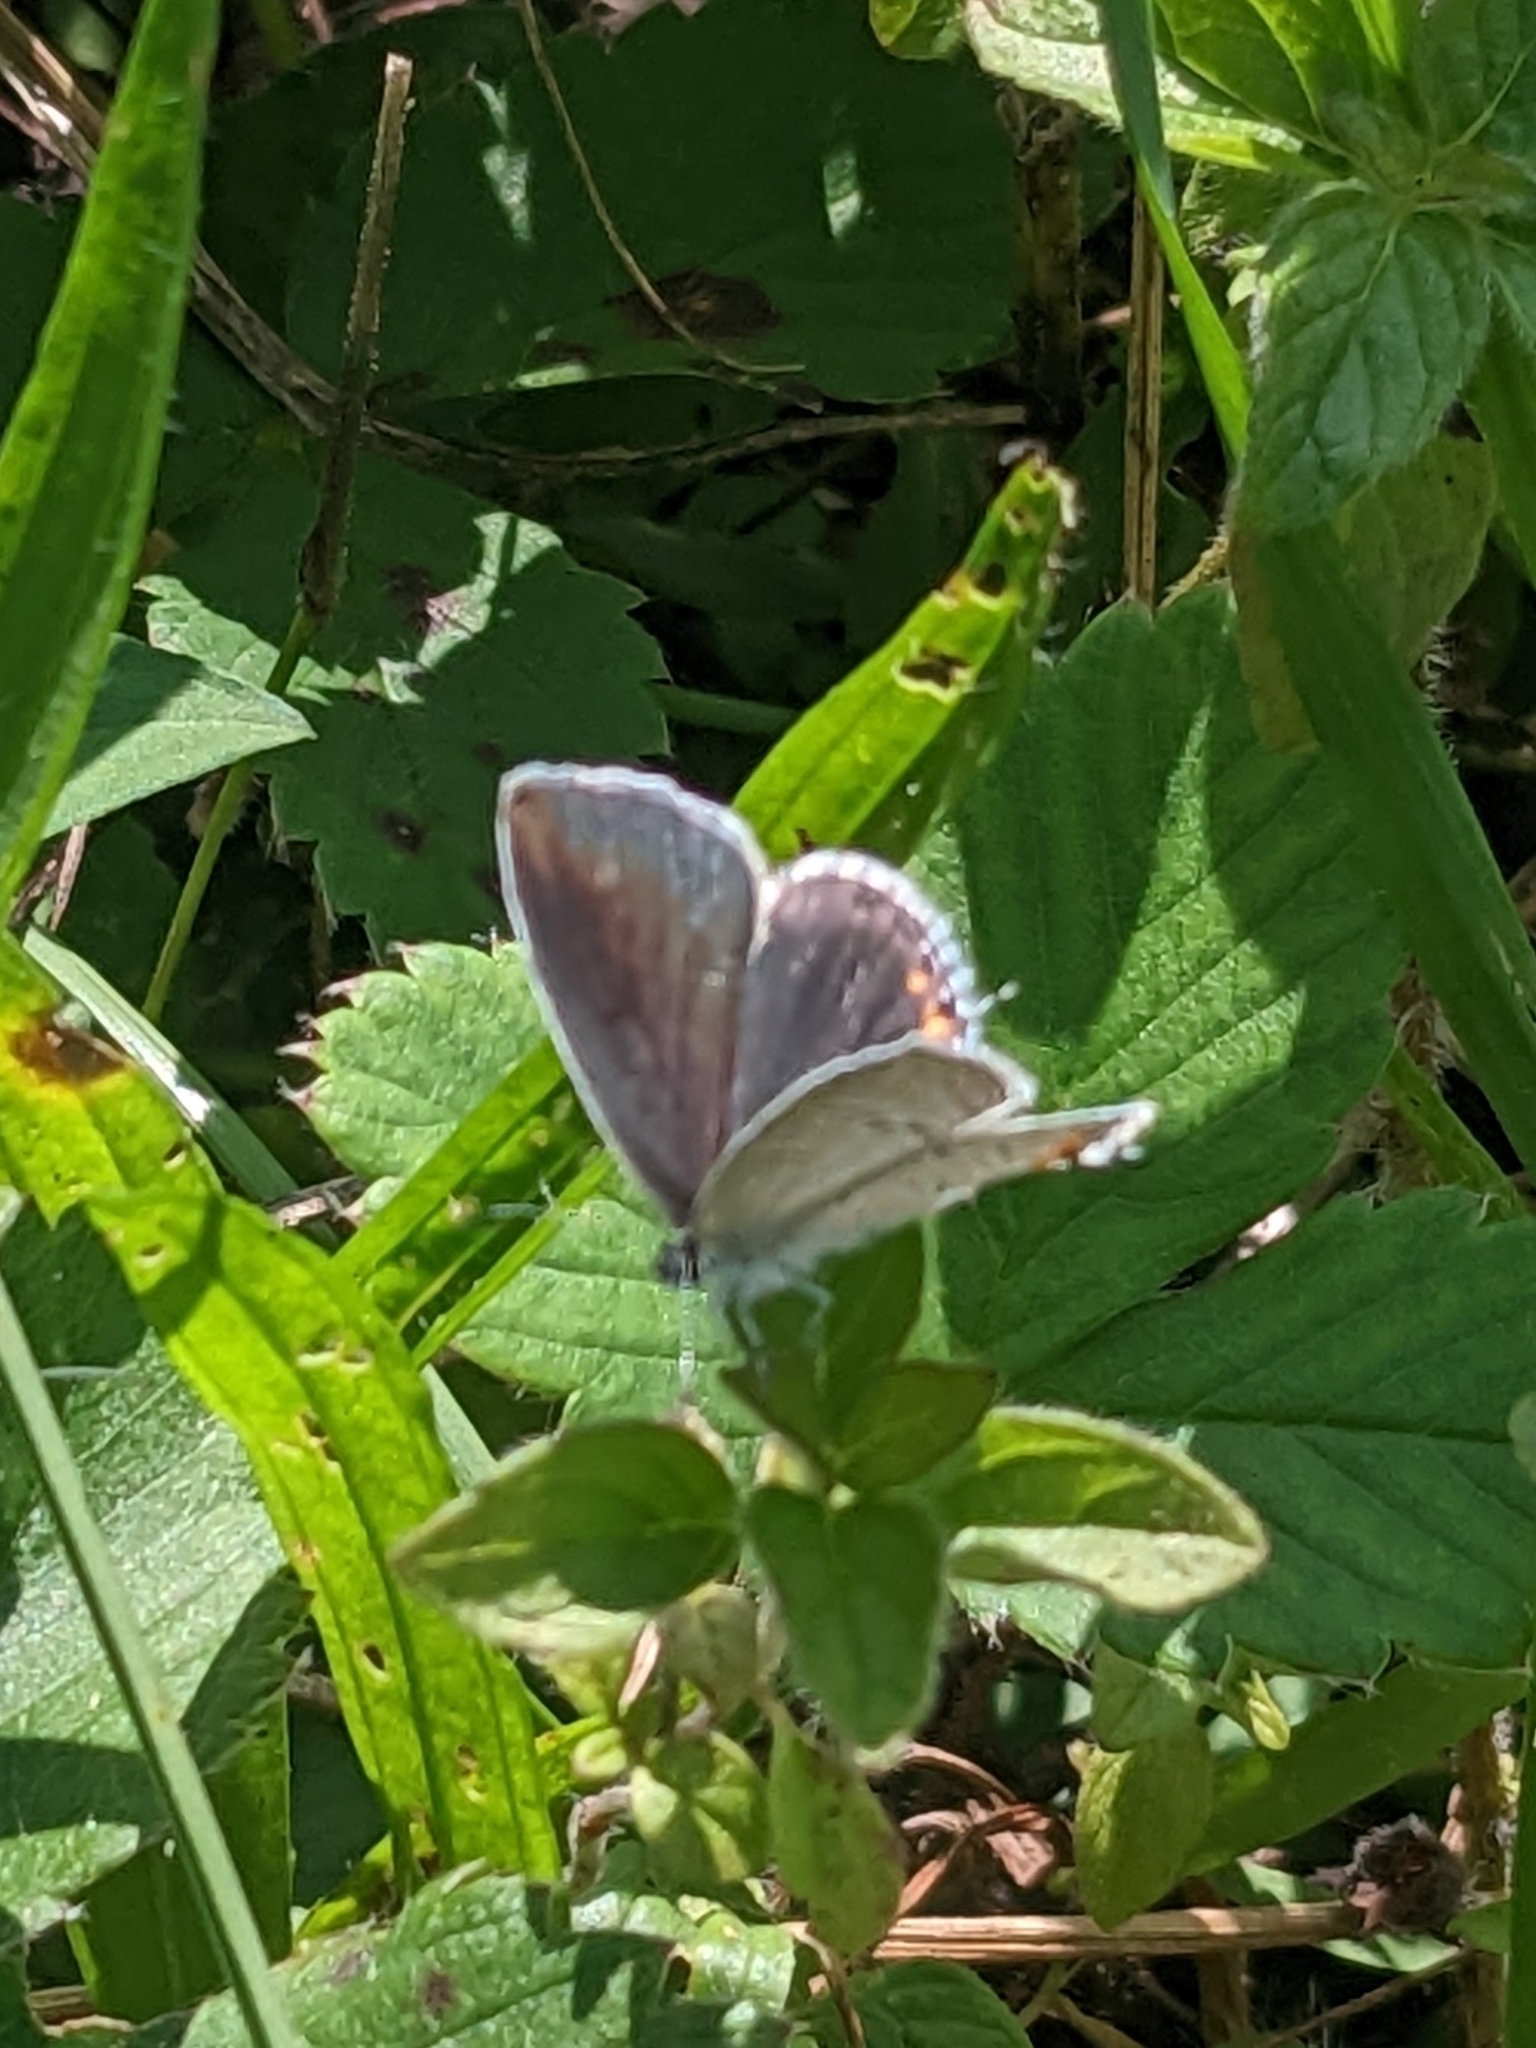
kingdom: Animalia
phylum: Arthropoda
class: Insecta
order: Lepidoptera
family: Lycaenidae
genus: Elkalyce
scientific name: Elkalyce comyntas
